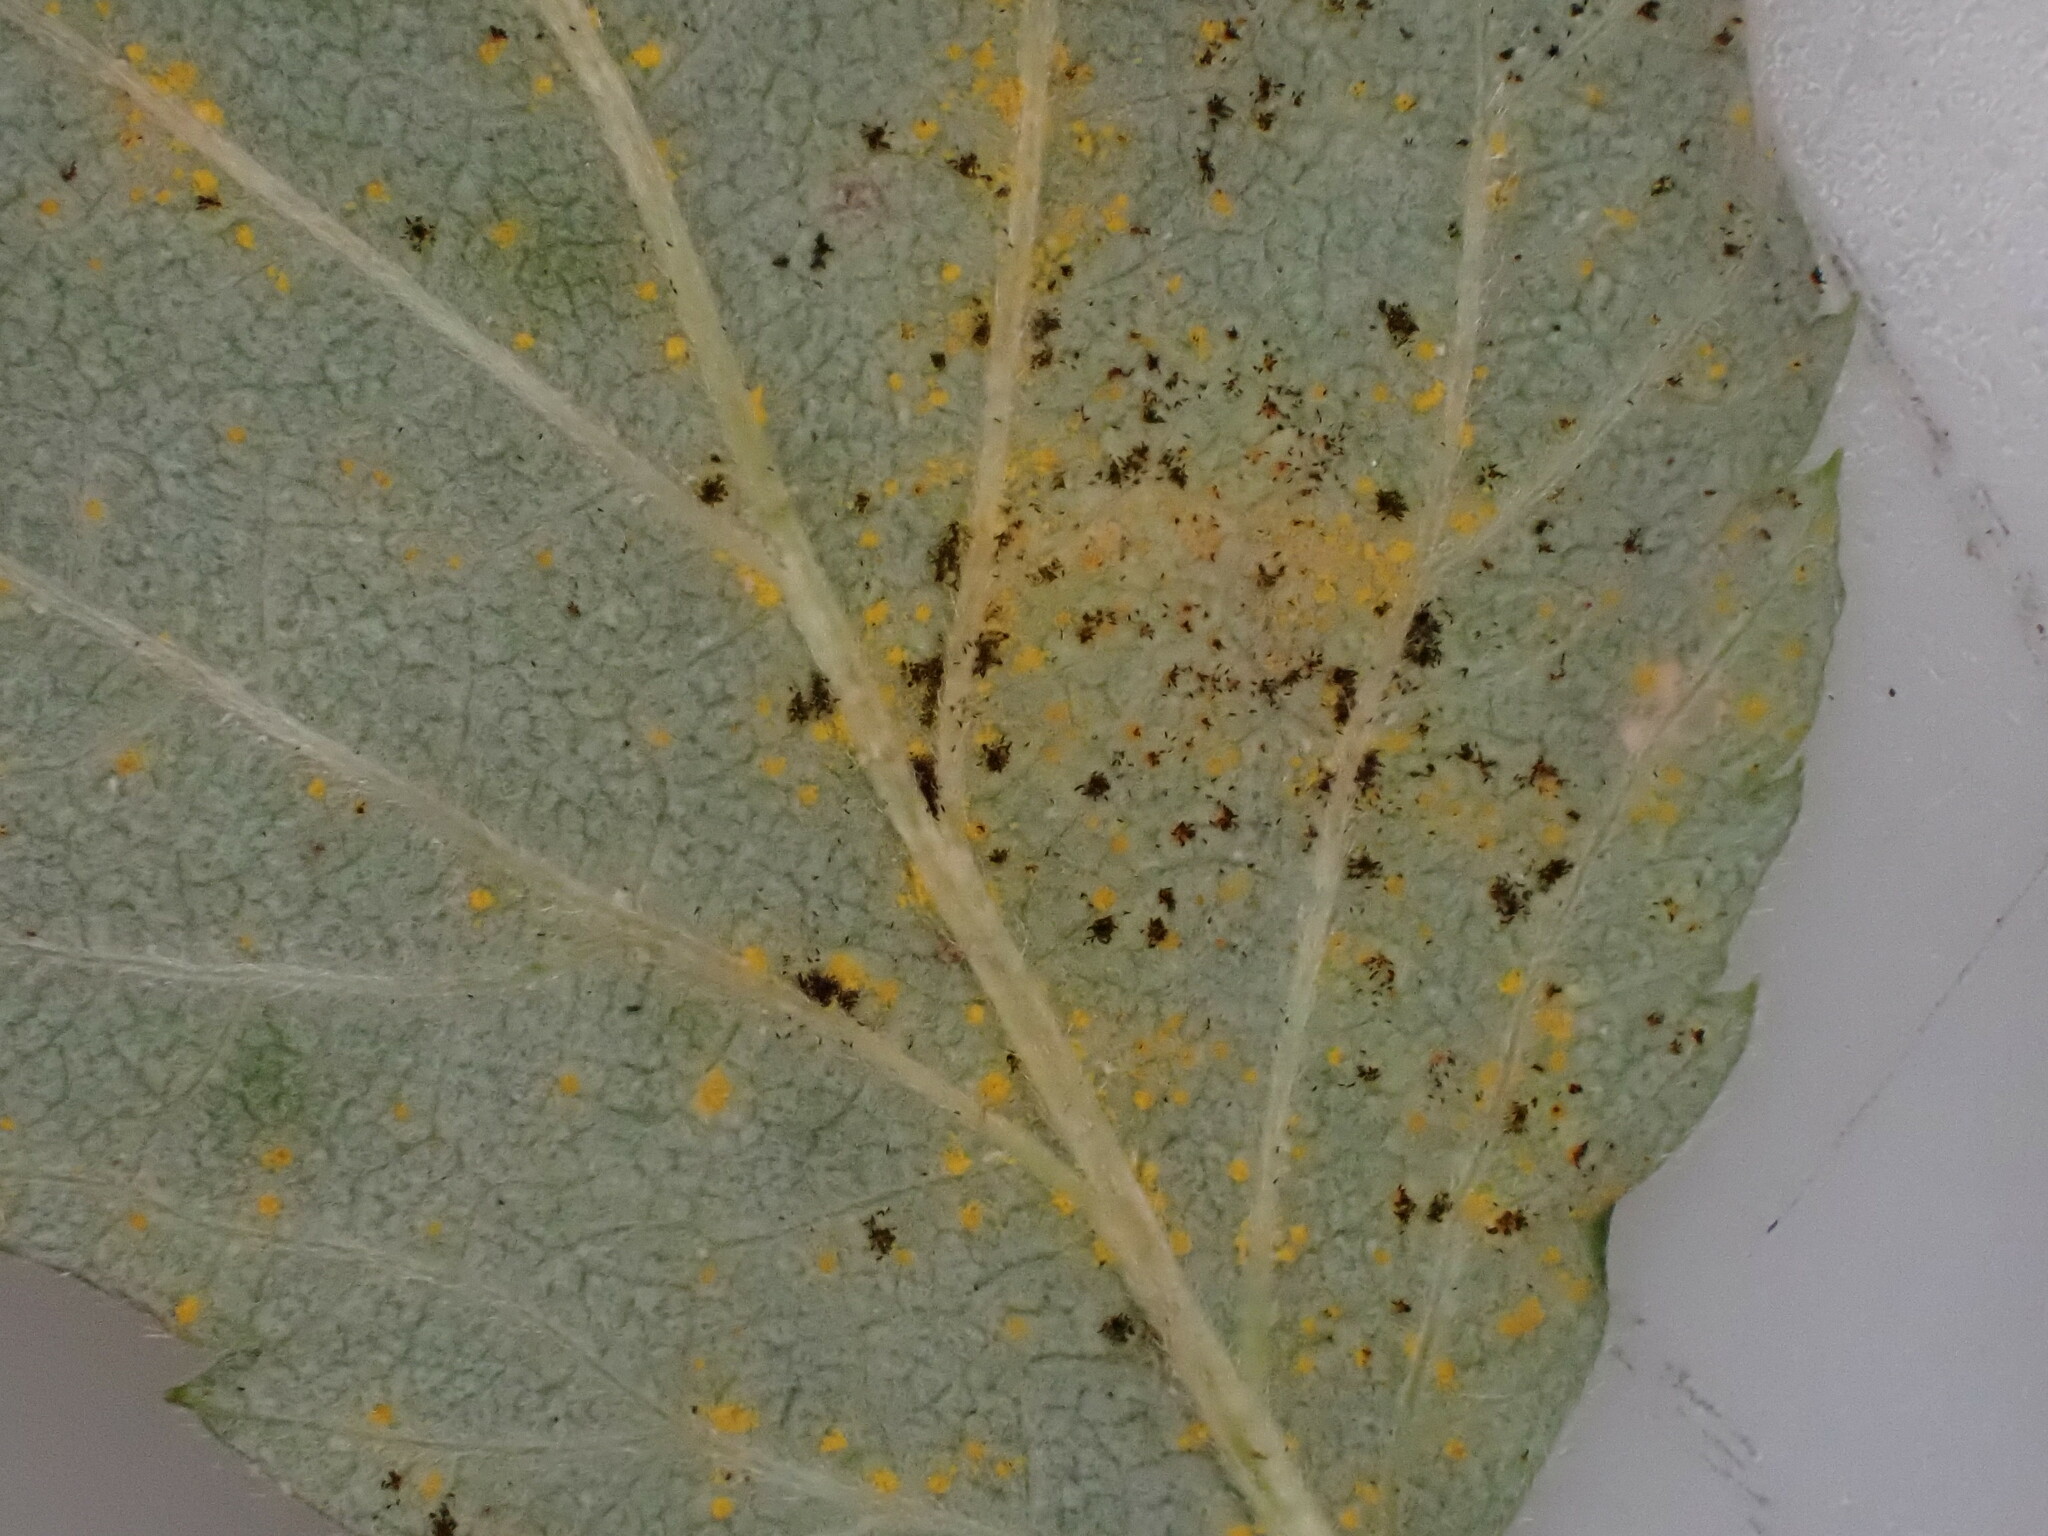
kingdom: Fungi
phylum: Basidiomycota
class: Pucciniomycetes
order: Pucciniales
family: Phragmidiaceae
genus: Phragmidium
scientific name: Phragmidium rubi-idaei
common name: Raspberry rust
